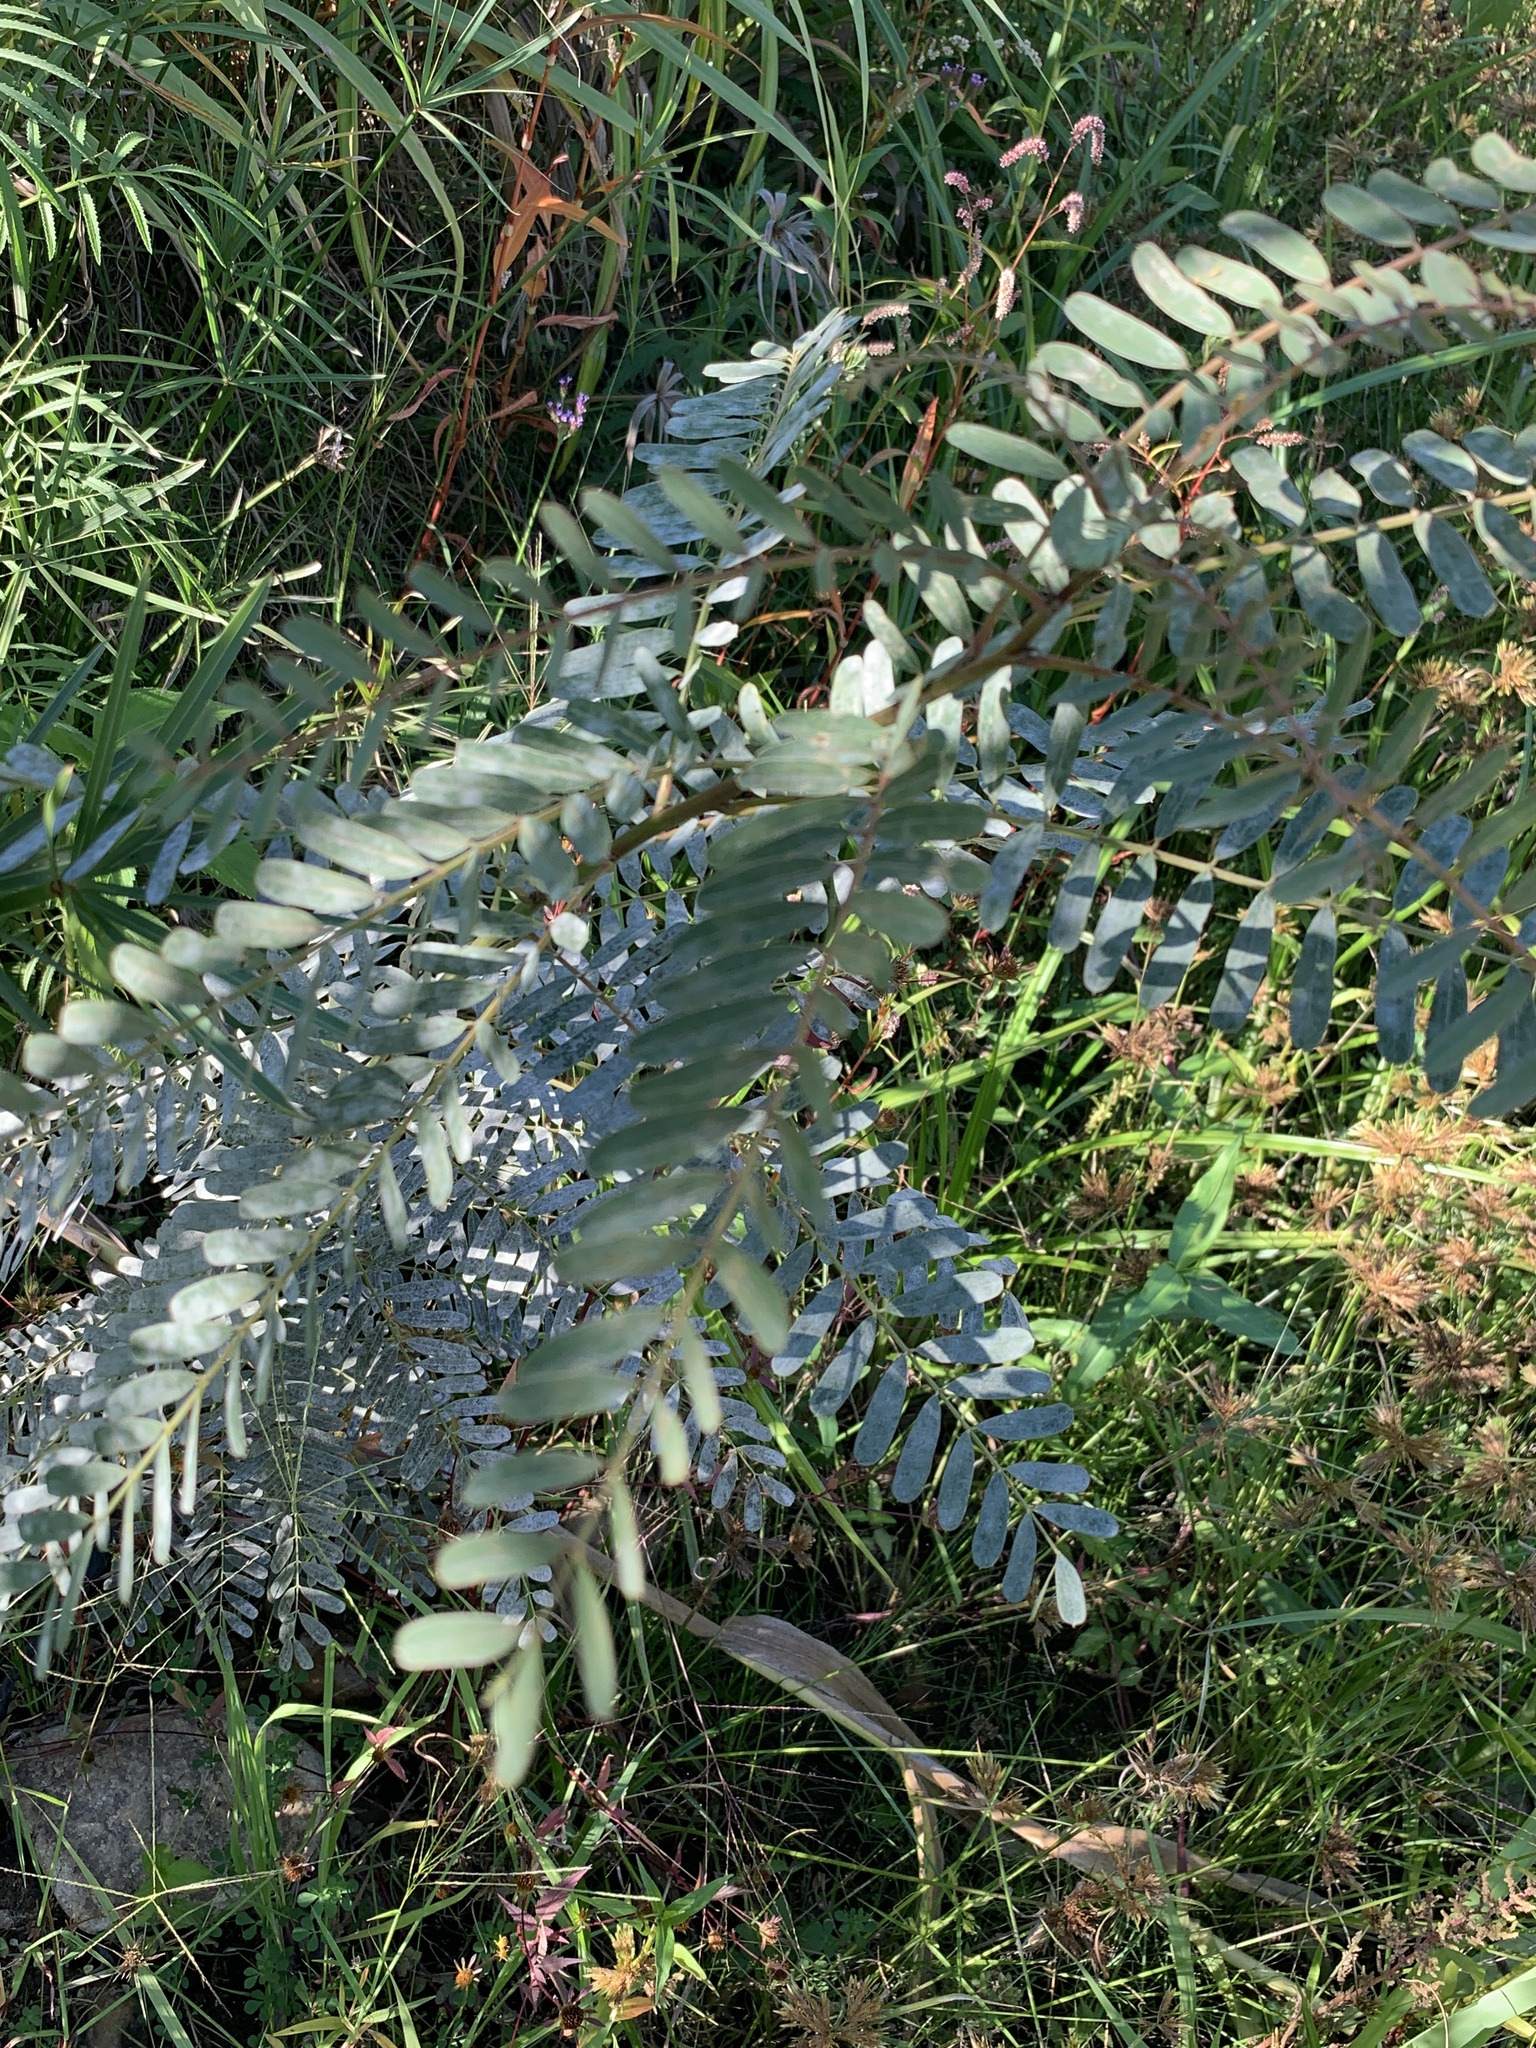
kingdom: Plantae
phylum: Tracheophyta
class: Magnoliopsida
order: Fabales
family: Fabaceae
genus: Sesbania
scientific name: Sesbania punicea
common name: Rattlebox
